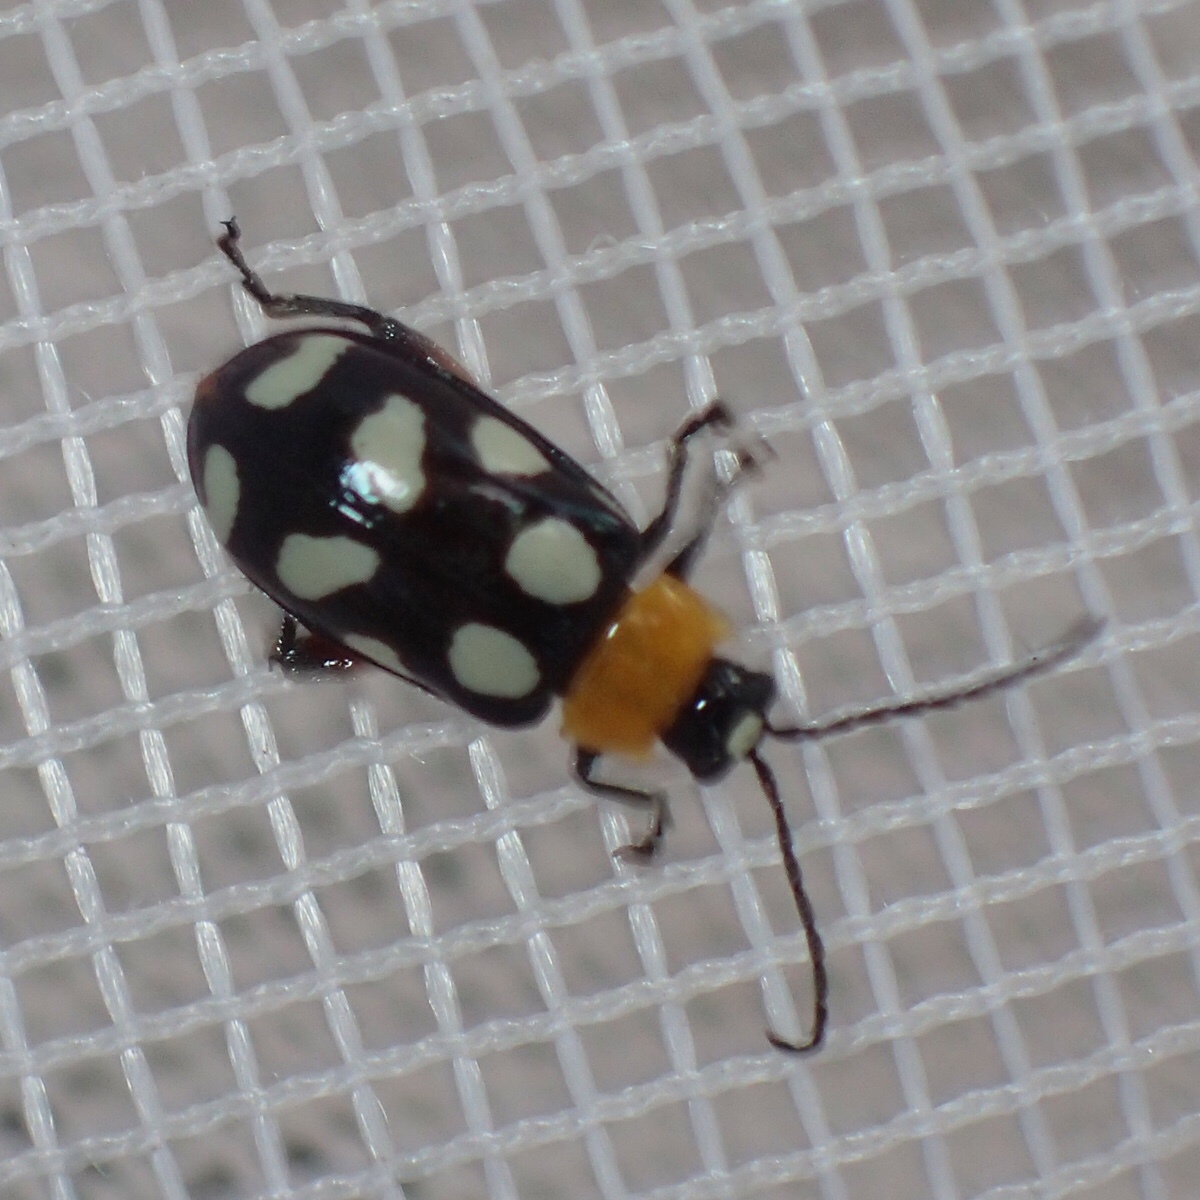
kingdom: Animalia
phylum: Arthropoda
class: Insecta
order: Coleoptera
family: Chrysomelidae
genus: Omophoita
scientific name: Omophoita cyanipennis
